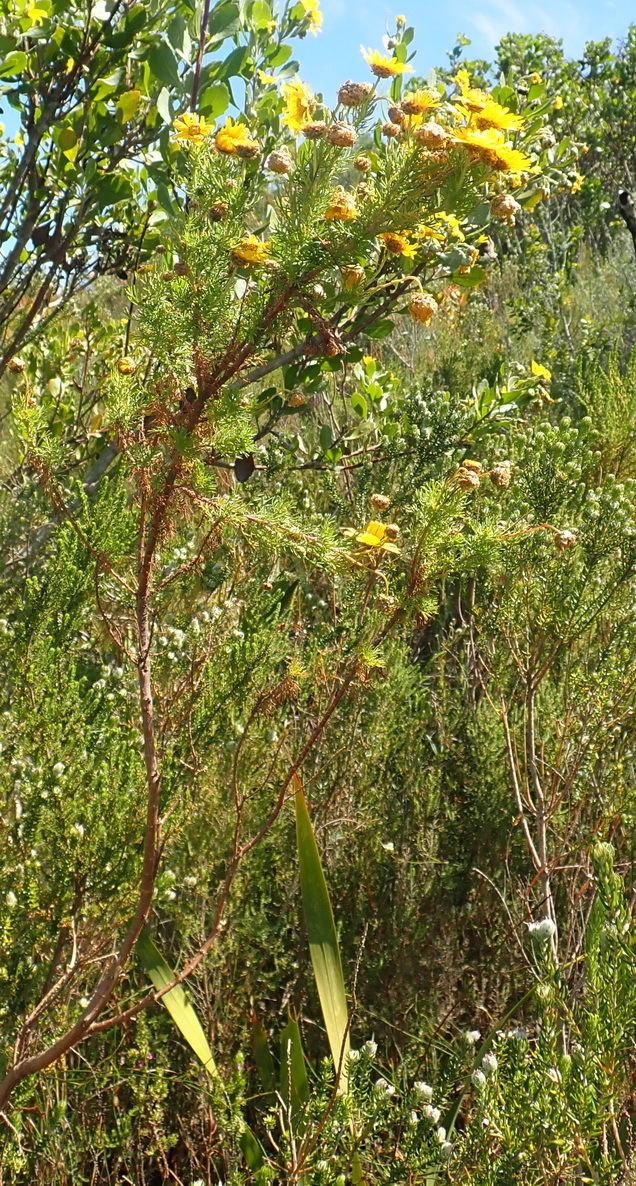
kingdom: Plantae
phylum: Tracheophyta
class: Magnoliopsida
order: Asterales
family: Asteraceae
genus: Ursinia
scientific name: Ursinia scariosa
